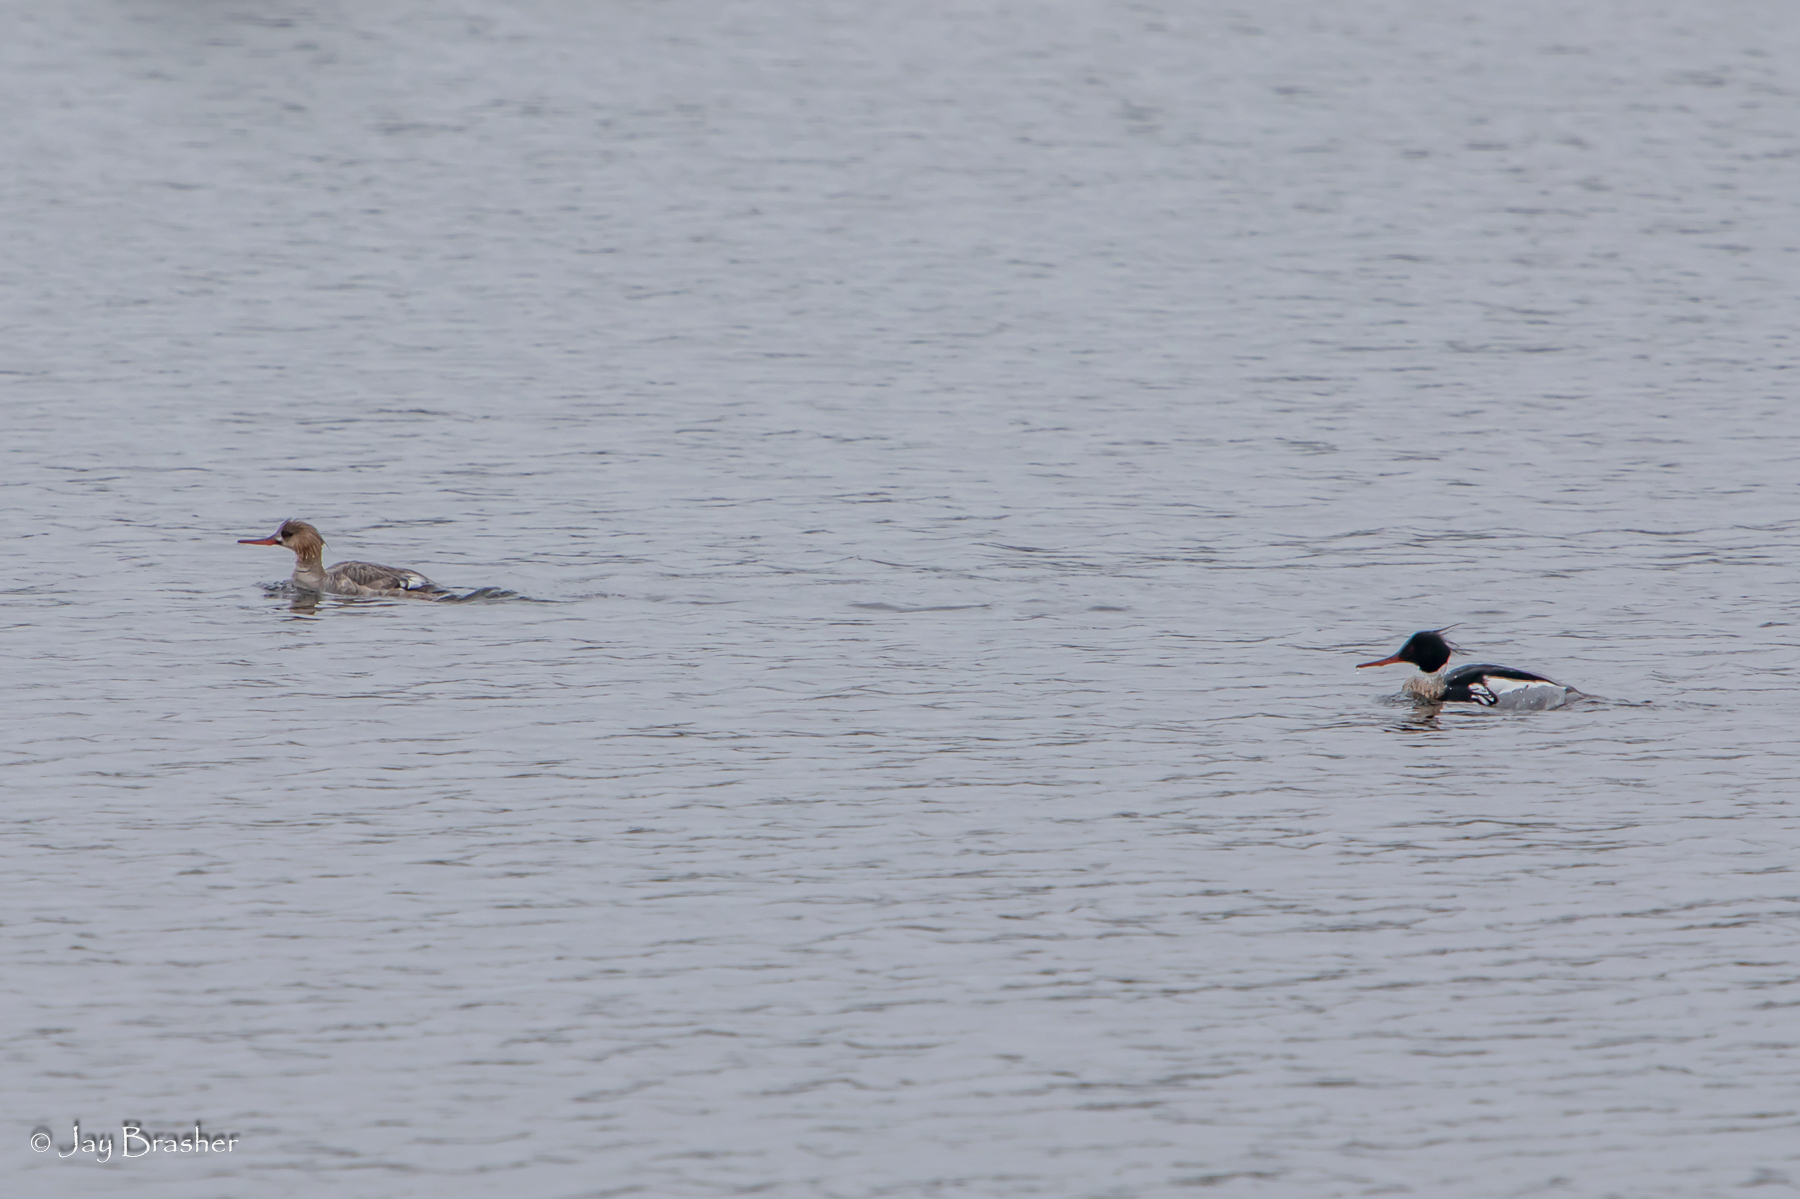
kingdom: Animalia
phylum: Chordata
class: Aves
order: Anseriformes
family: Anatidae
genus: Mergus
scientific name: Mergus serrator
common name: Red-breasted merganser
